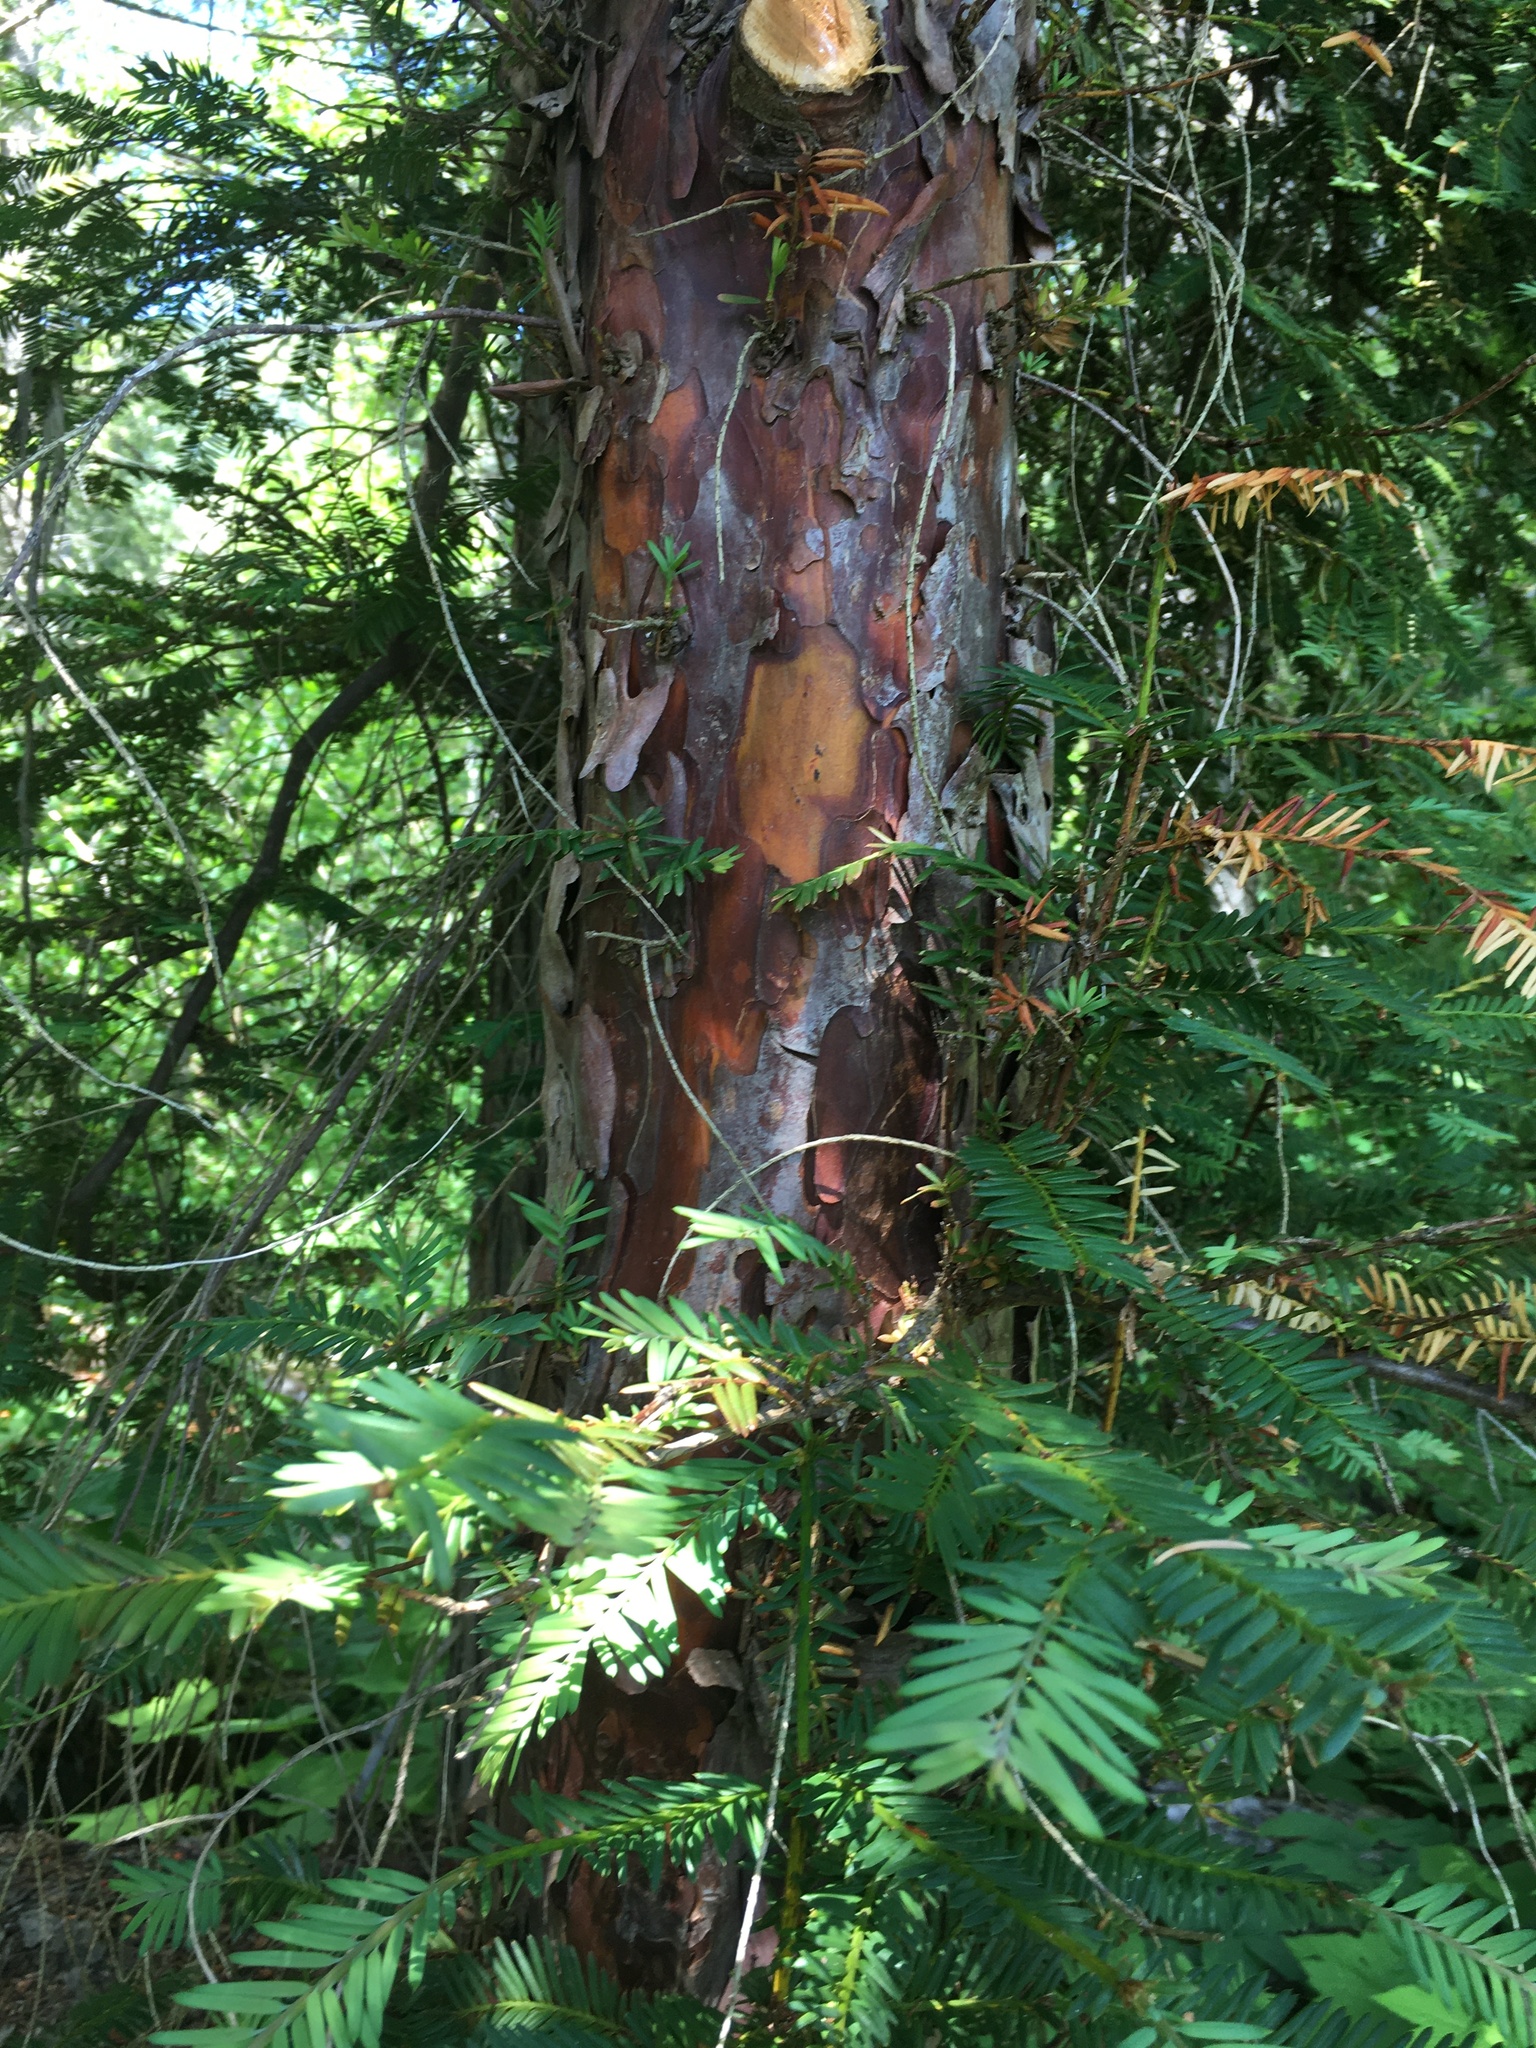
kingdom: Plantae
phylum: Tracheophyta
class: Pinopsida
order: Pinales
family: Taxaceae
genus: Taxus
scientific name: Taxus brevifolia
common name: Pacific yew
